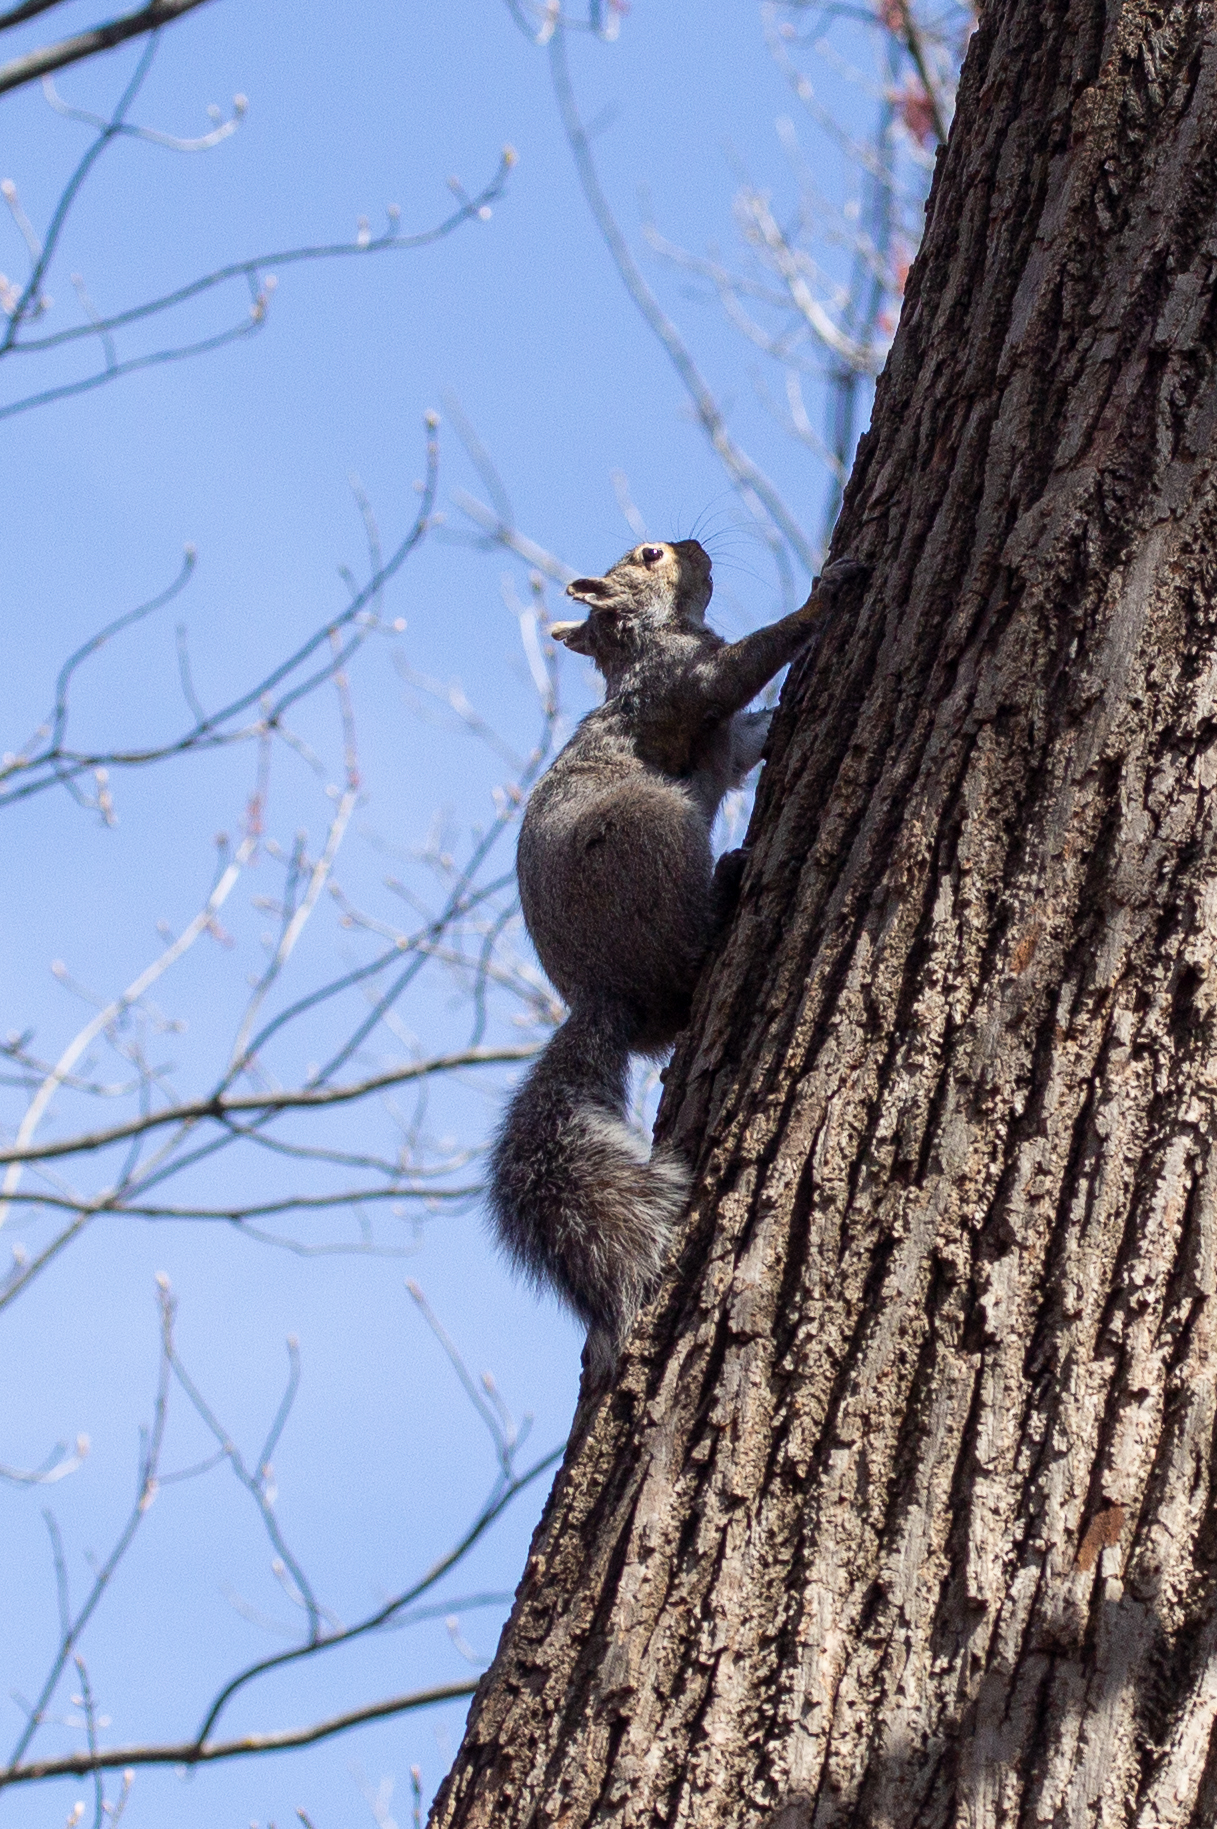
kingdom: Animalia
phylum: Chordata
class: Mammalia
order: Rodentia
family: Sciuridae
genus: Sciurus
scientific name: Sciurus carolinensis
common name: Eastern gray squirrel
